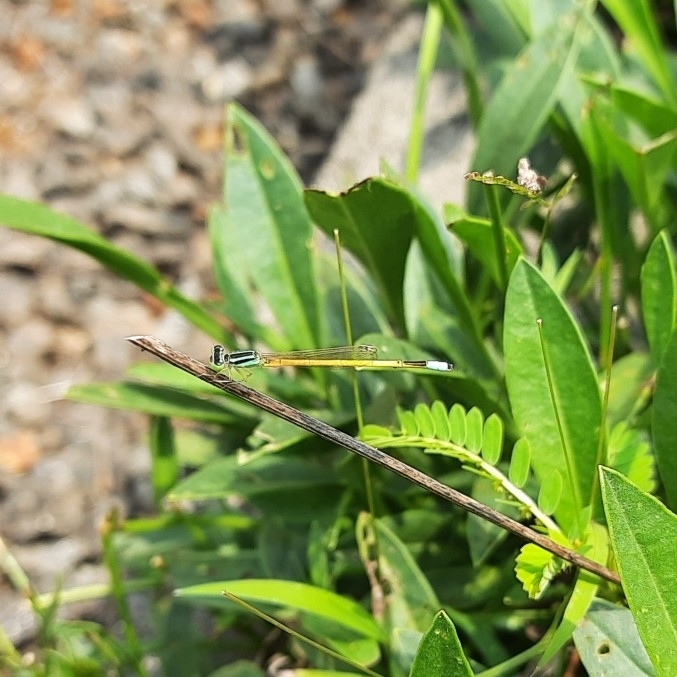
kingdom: Animalia
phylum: Arthropoda
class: Insecta
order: Odonata
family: Coenagrionidae
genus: Ischnura
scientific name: Ischnura rubilio
